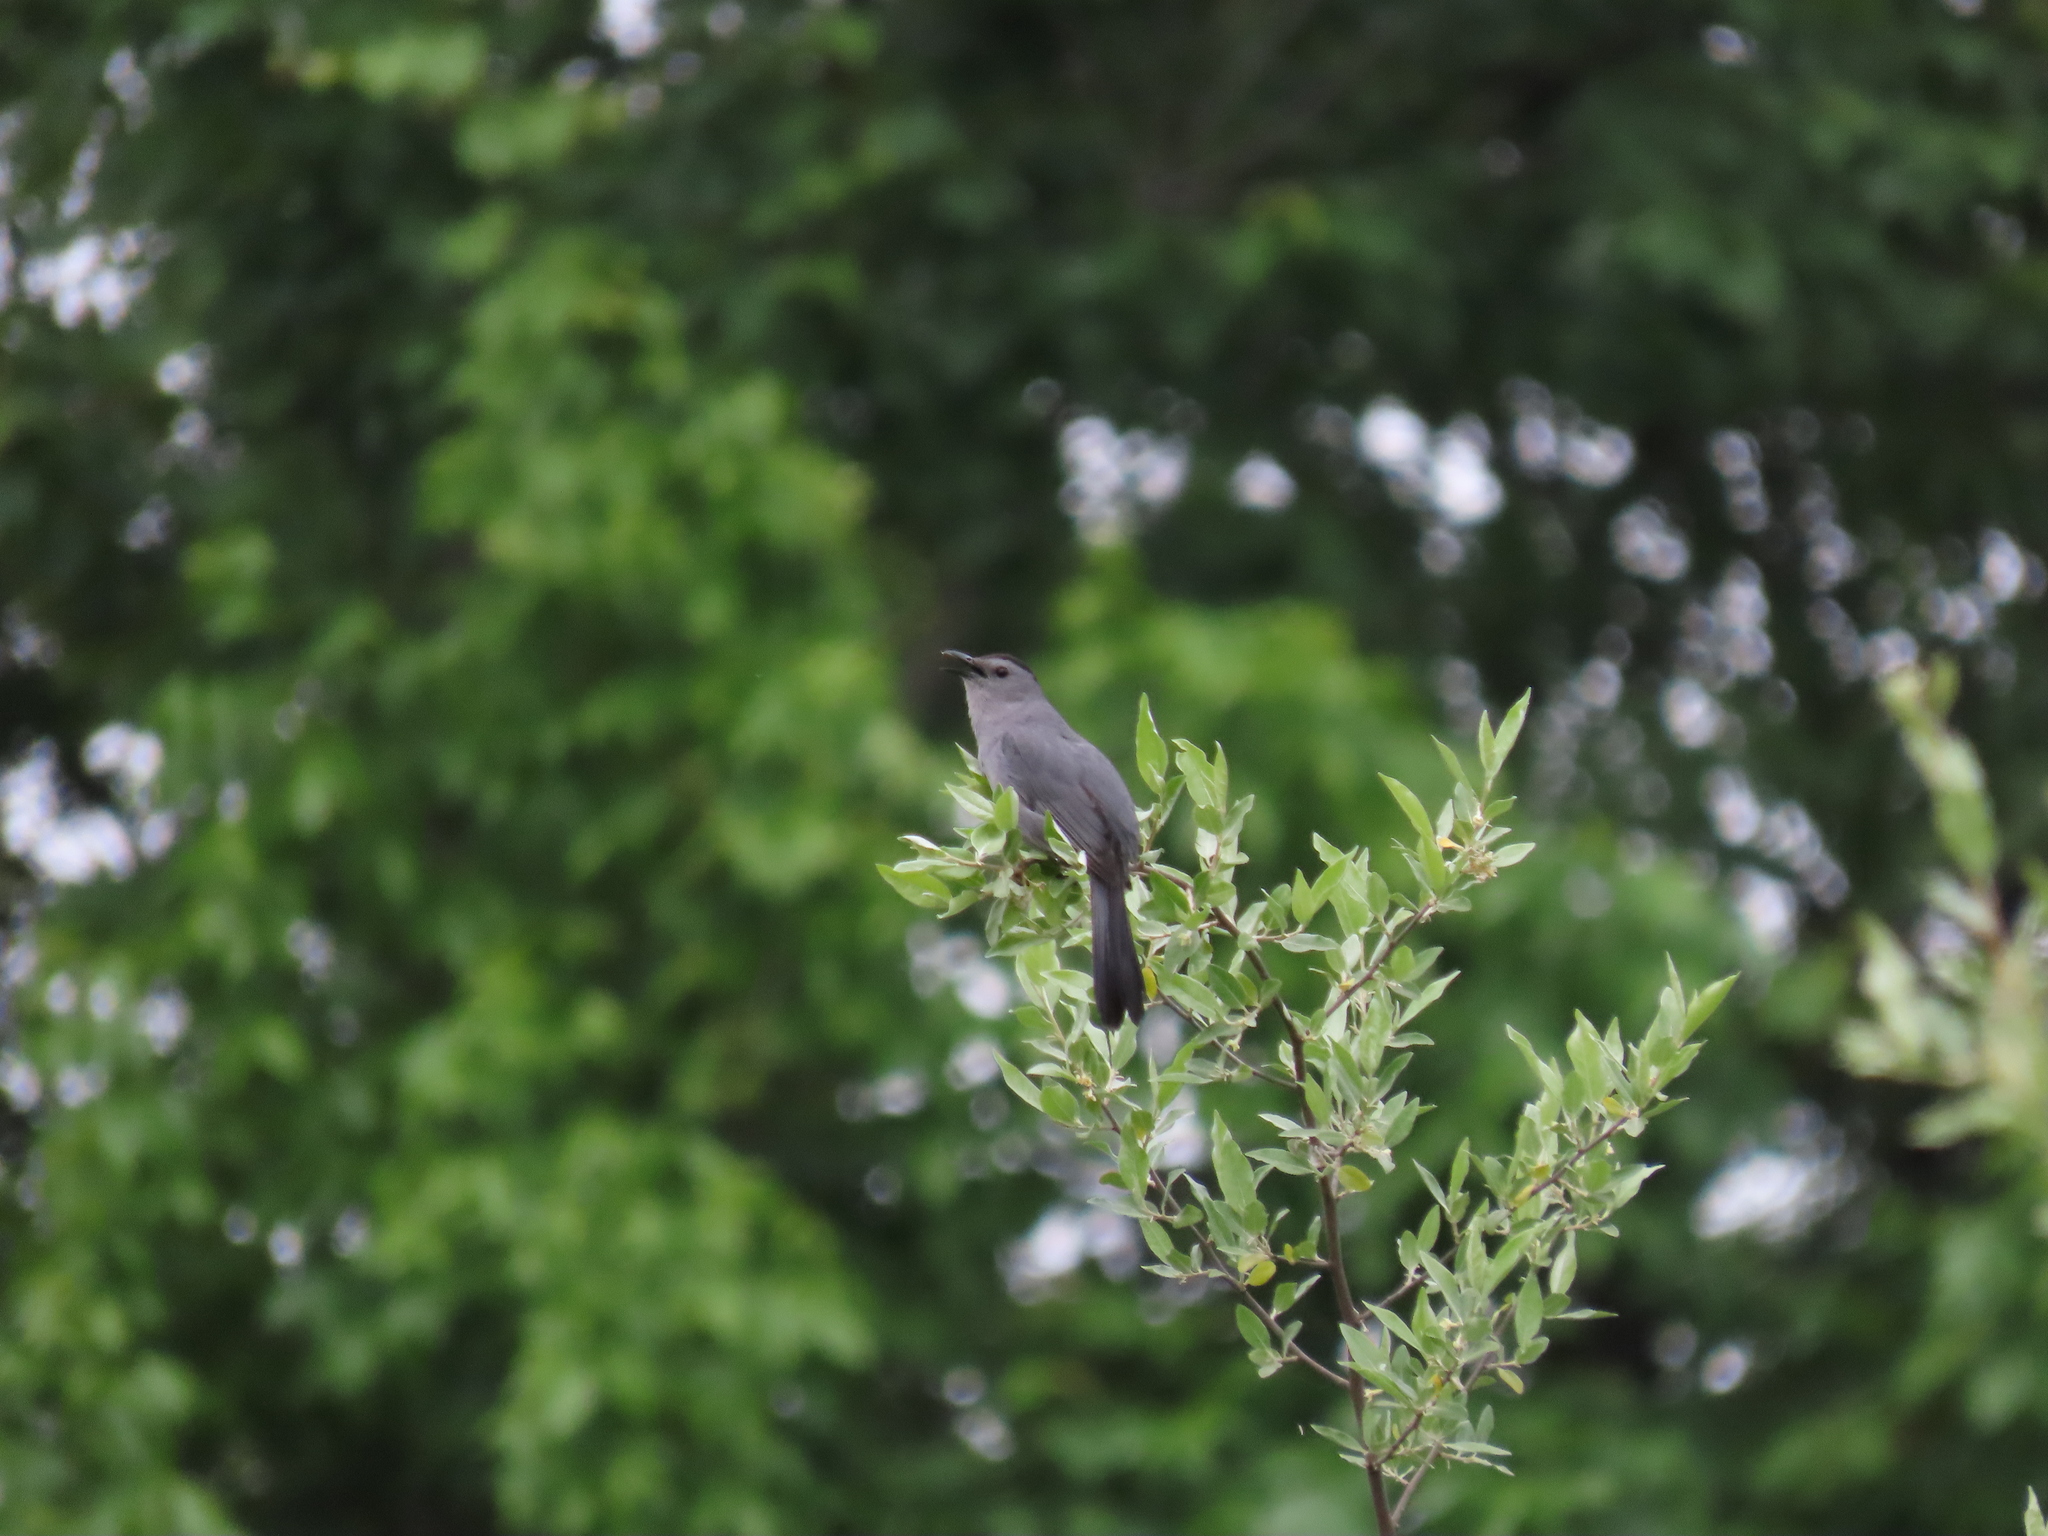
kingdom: Animalia
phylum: Chordata
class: Aves
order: Passeriformes
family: Mimidae
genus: Dumetella
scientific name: Dumetella carolinensis
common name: Gray catbird
